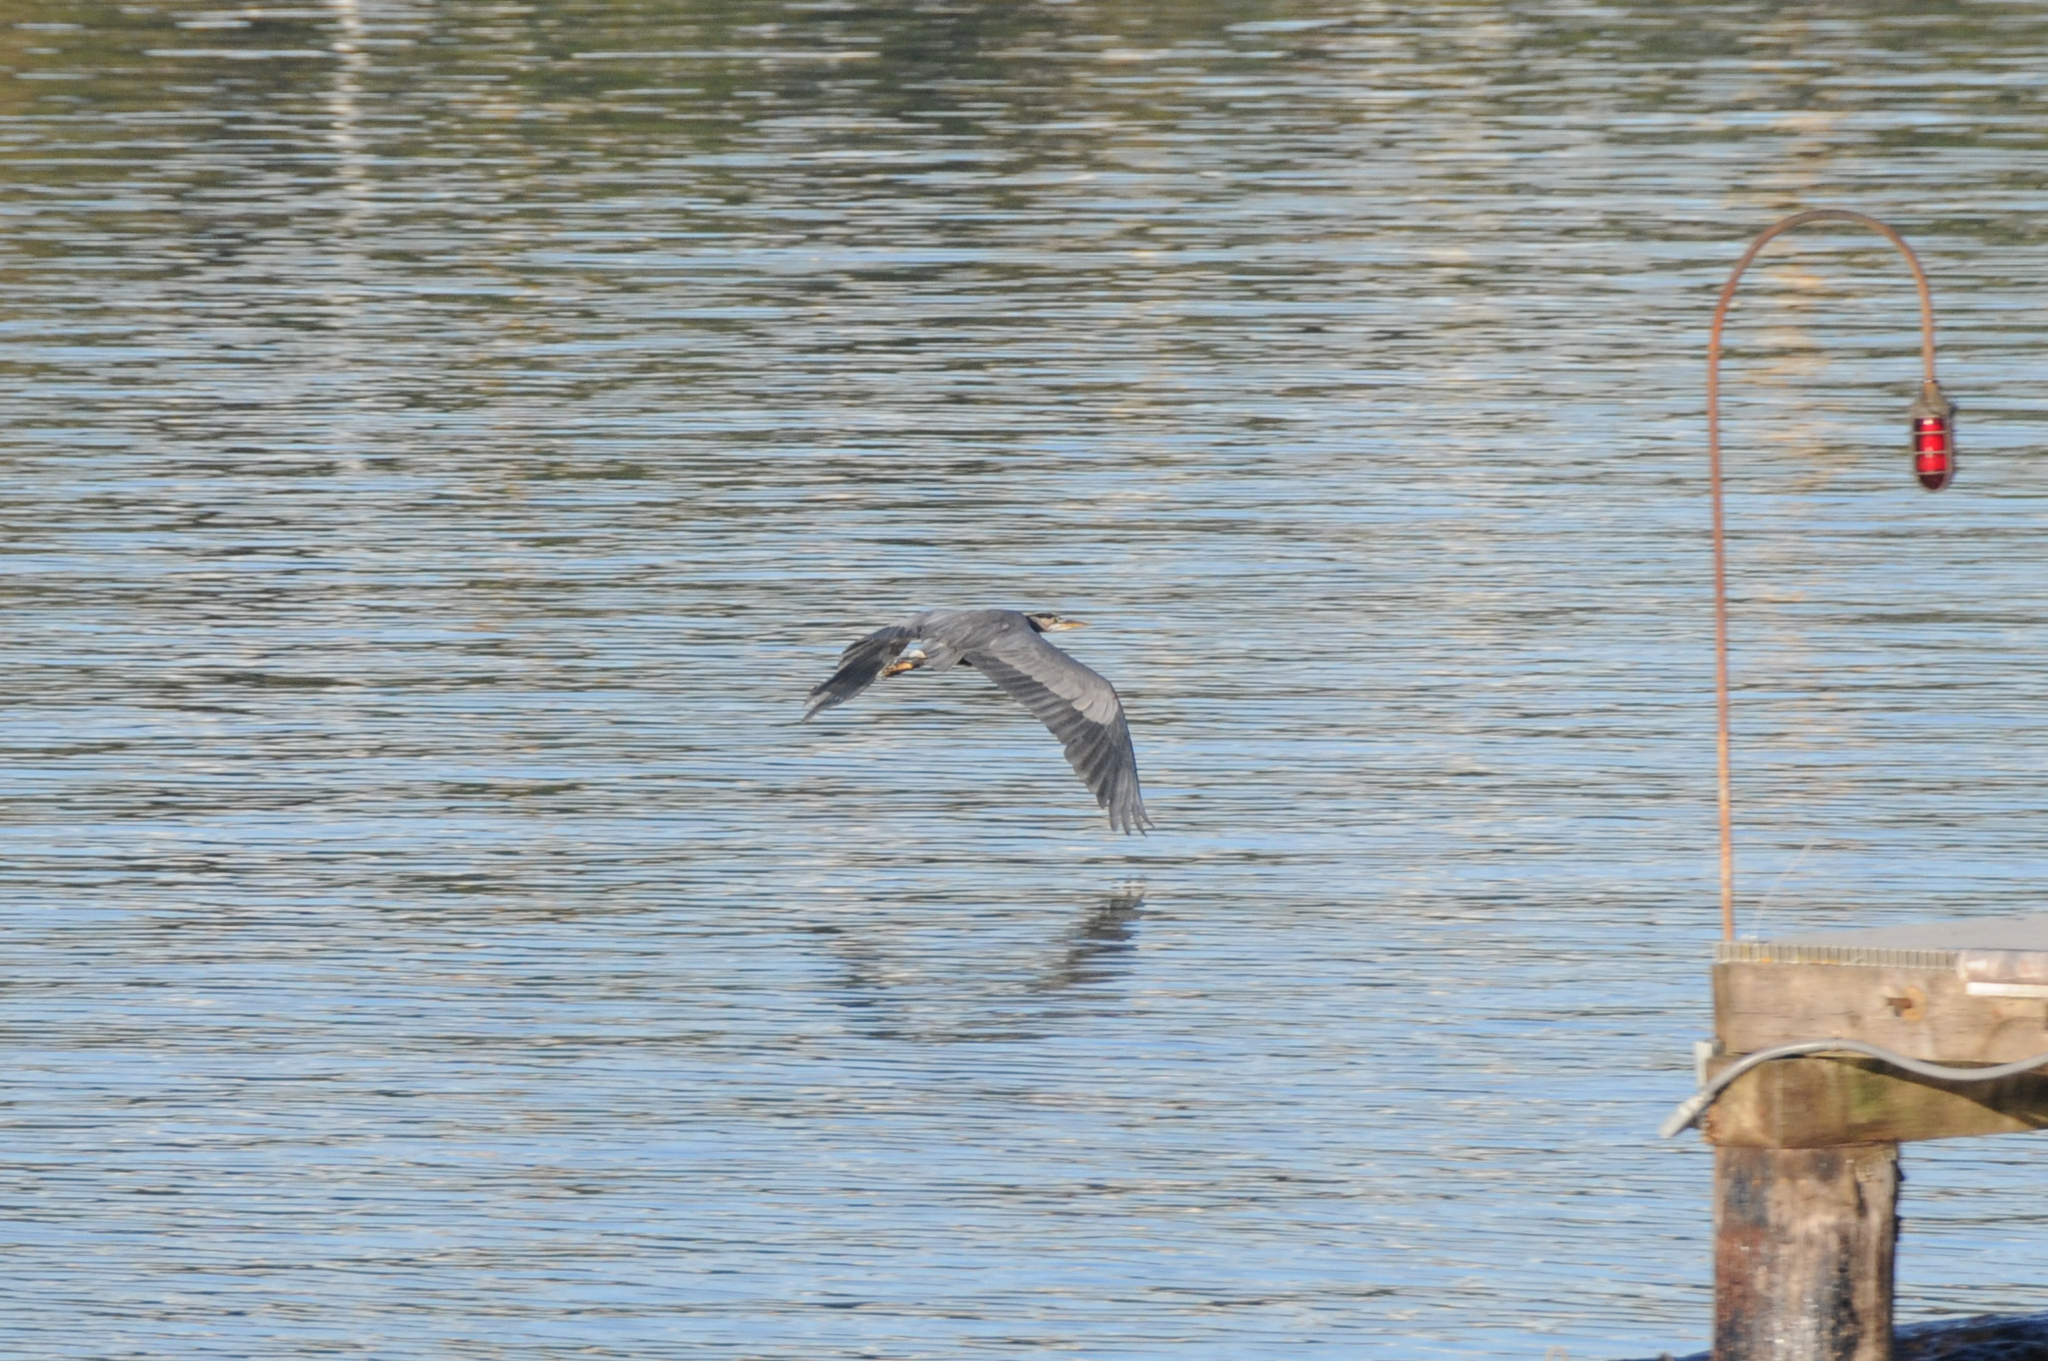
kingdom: Animalia
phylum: Chordata
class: Aves
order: Pelecaniformes
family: Ardeidae
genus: Ardea
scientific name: Ardea herodias
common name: Great blue heron
